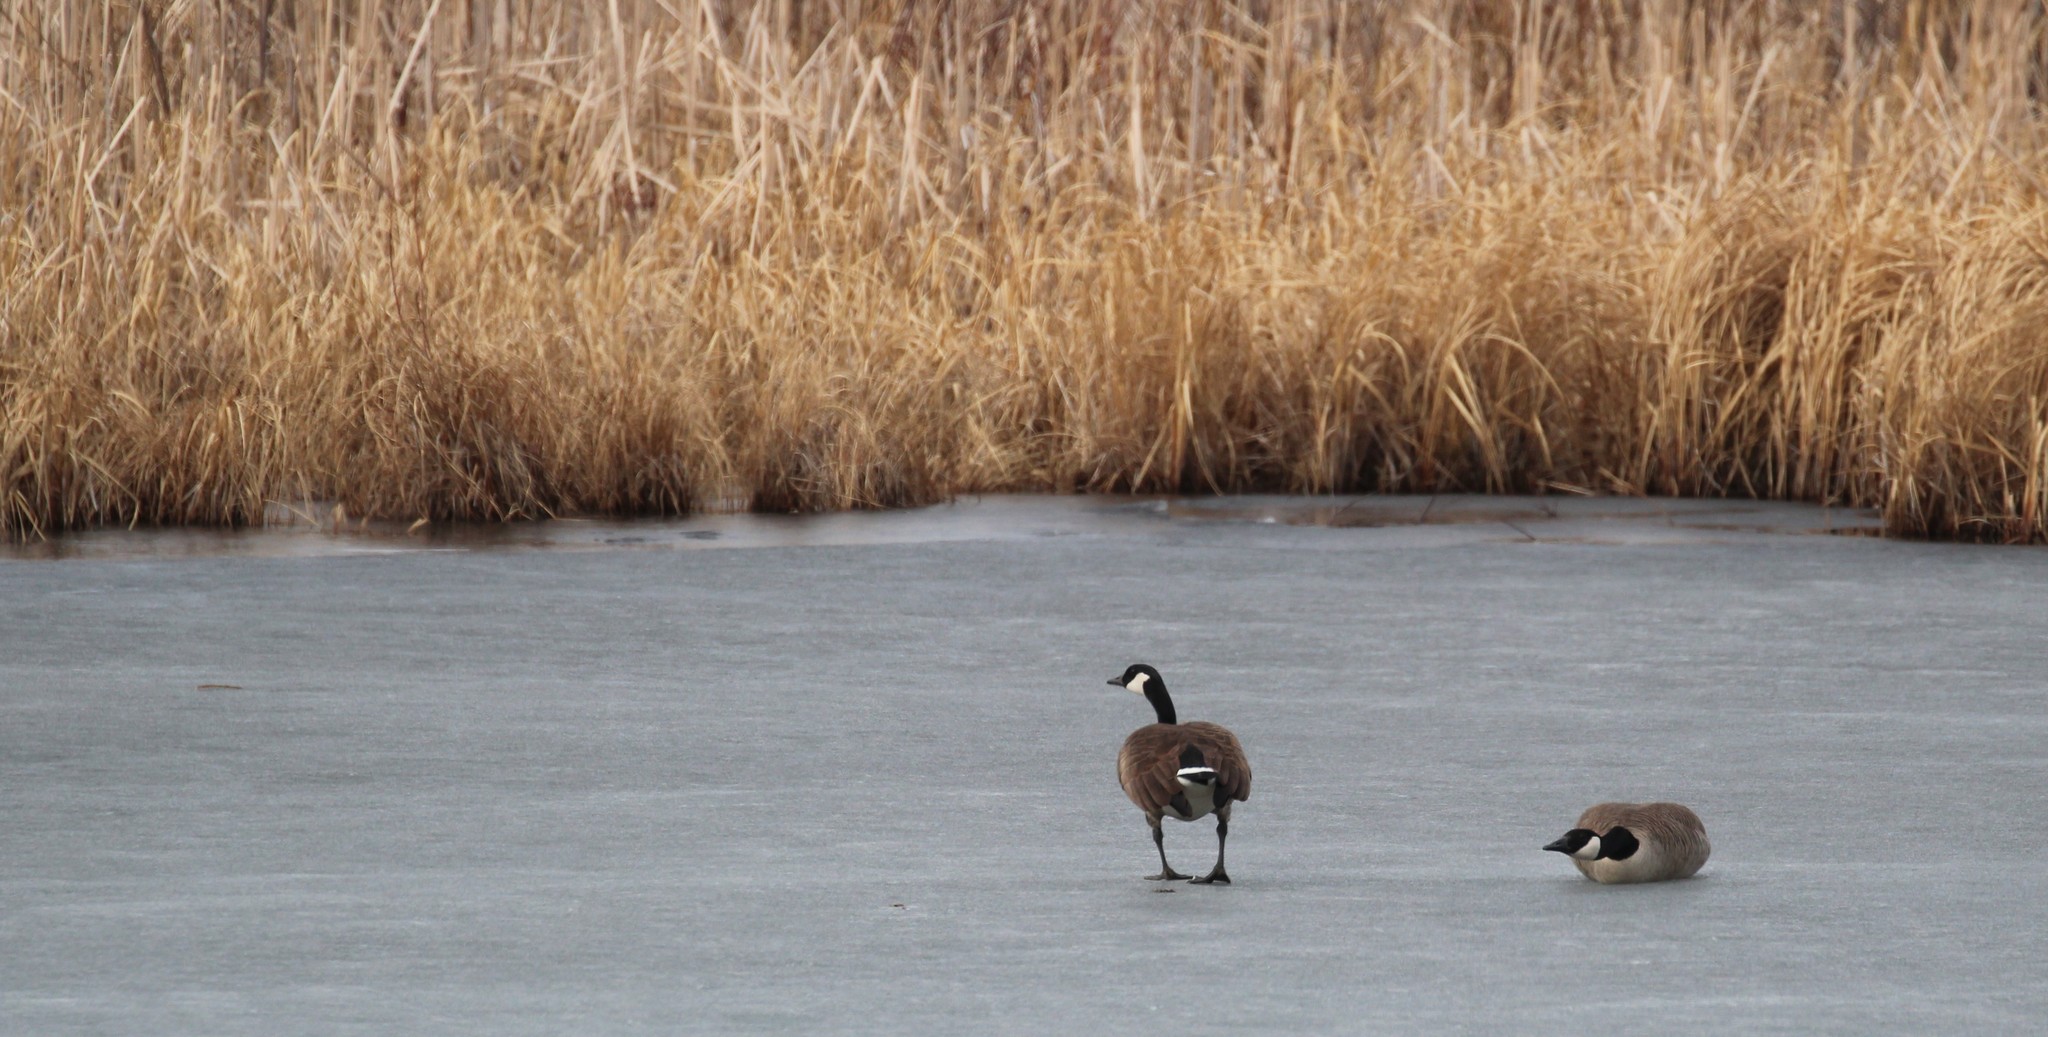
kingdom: Animalia
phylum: Chordata
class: Aves
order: Anseriformes
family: Anatidae
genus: Branta
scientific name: Branta canadensis
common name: Canada goose
